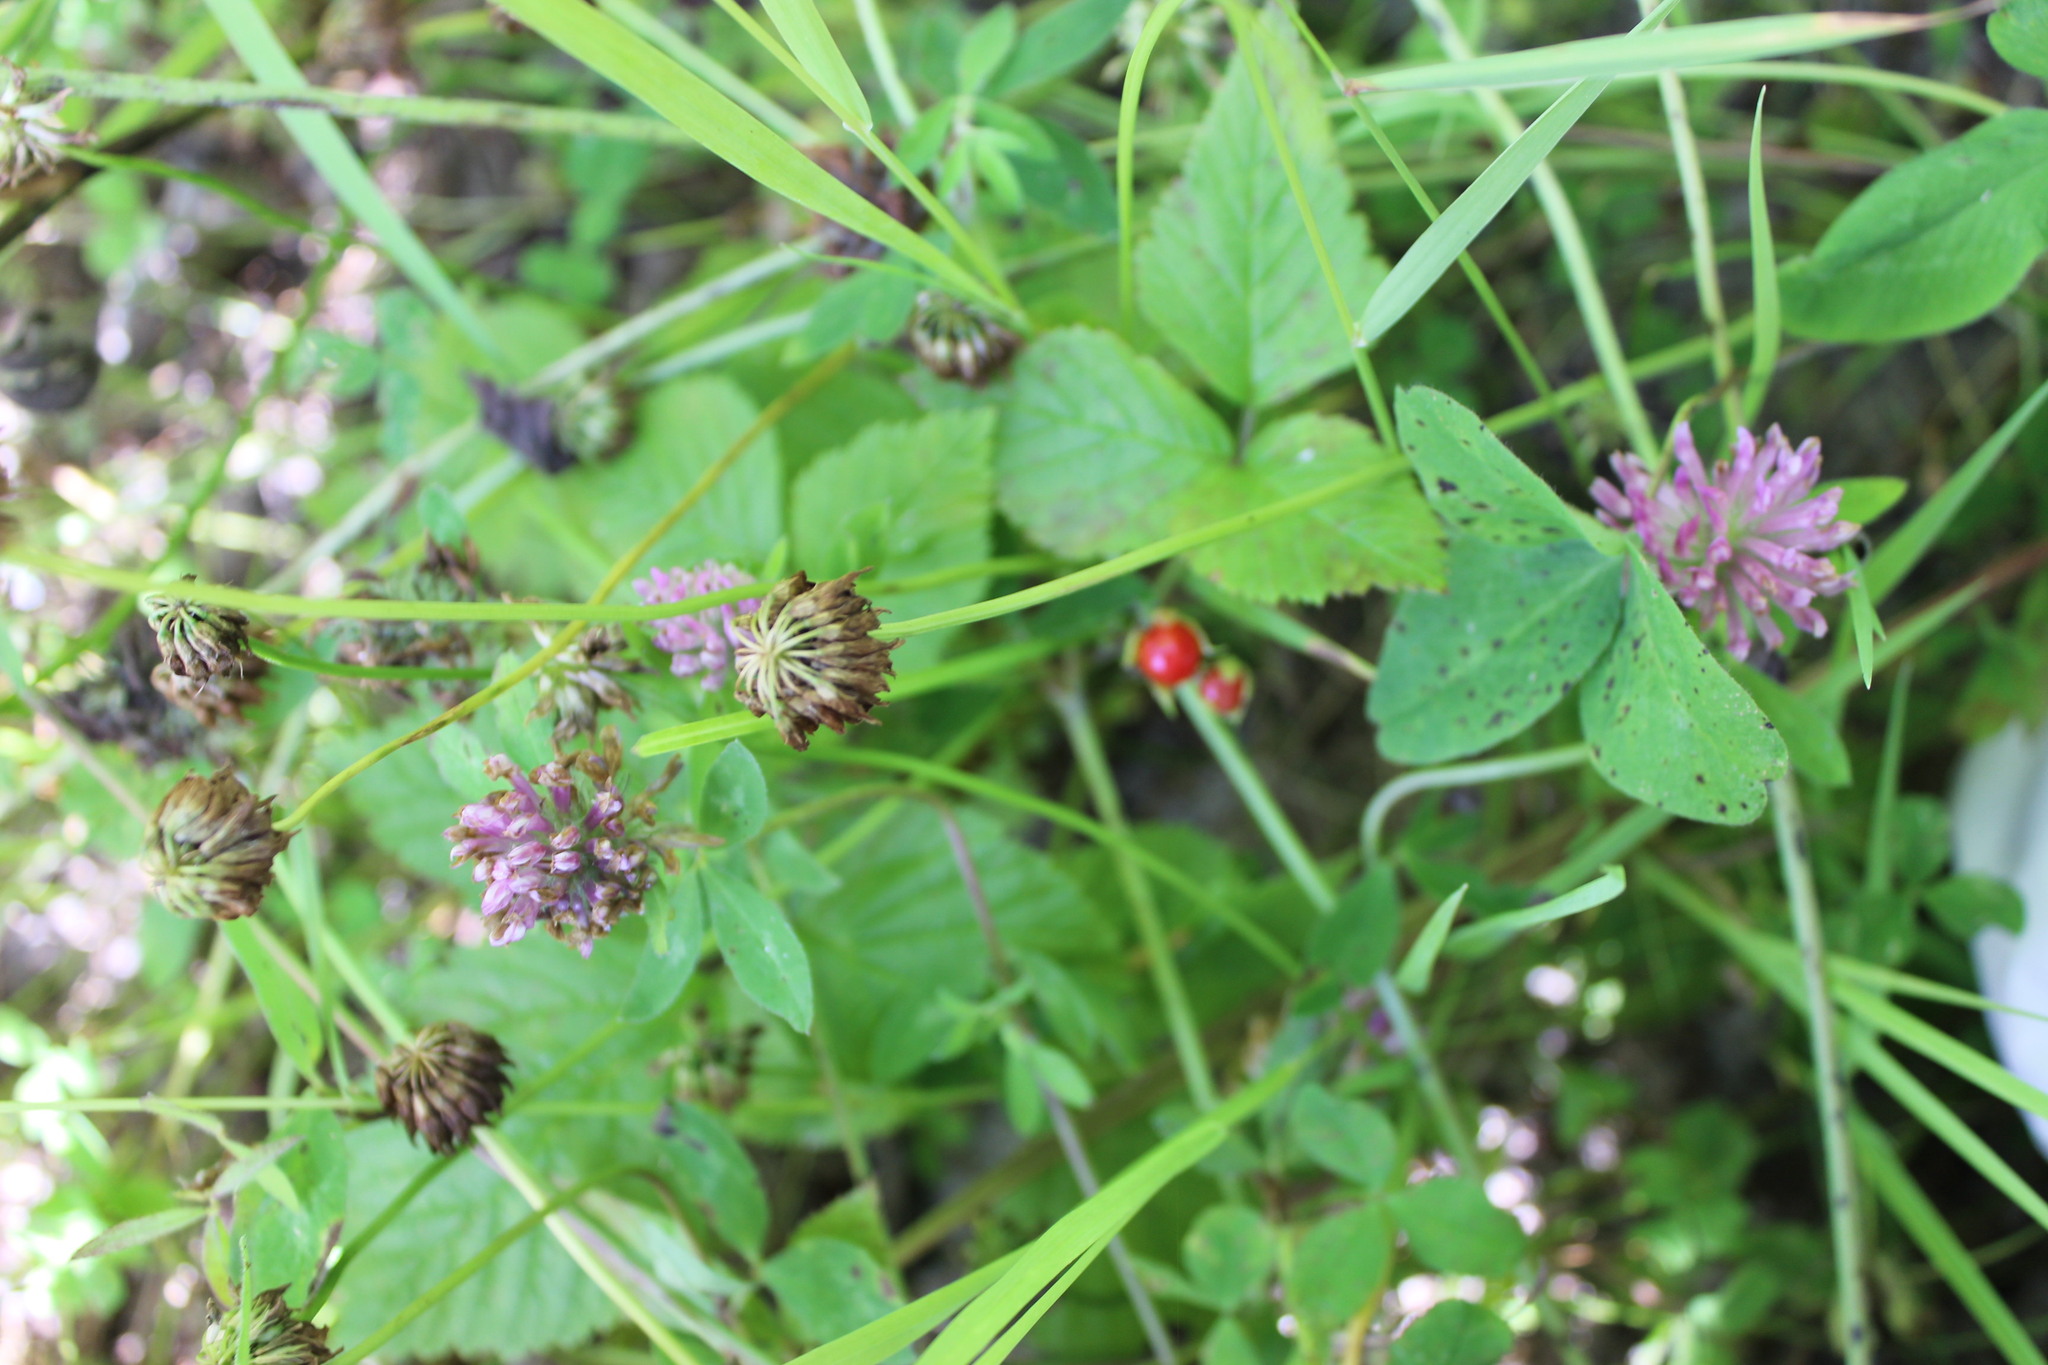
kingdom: Plantae
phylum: Tracheophyta
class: Magnoliopsida
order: Fabales
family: Fabaceae
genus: Trifolium
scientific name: Trifolium pratense
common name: Red clover
